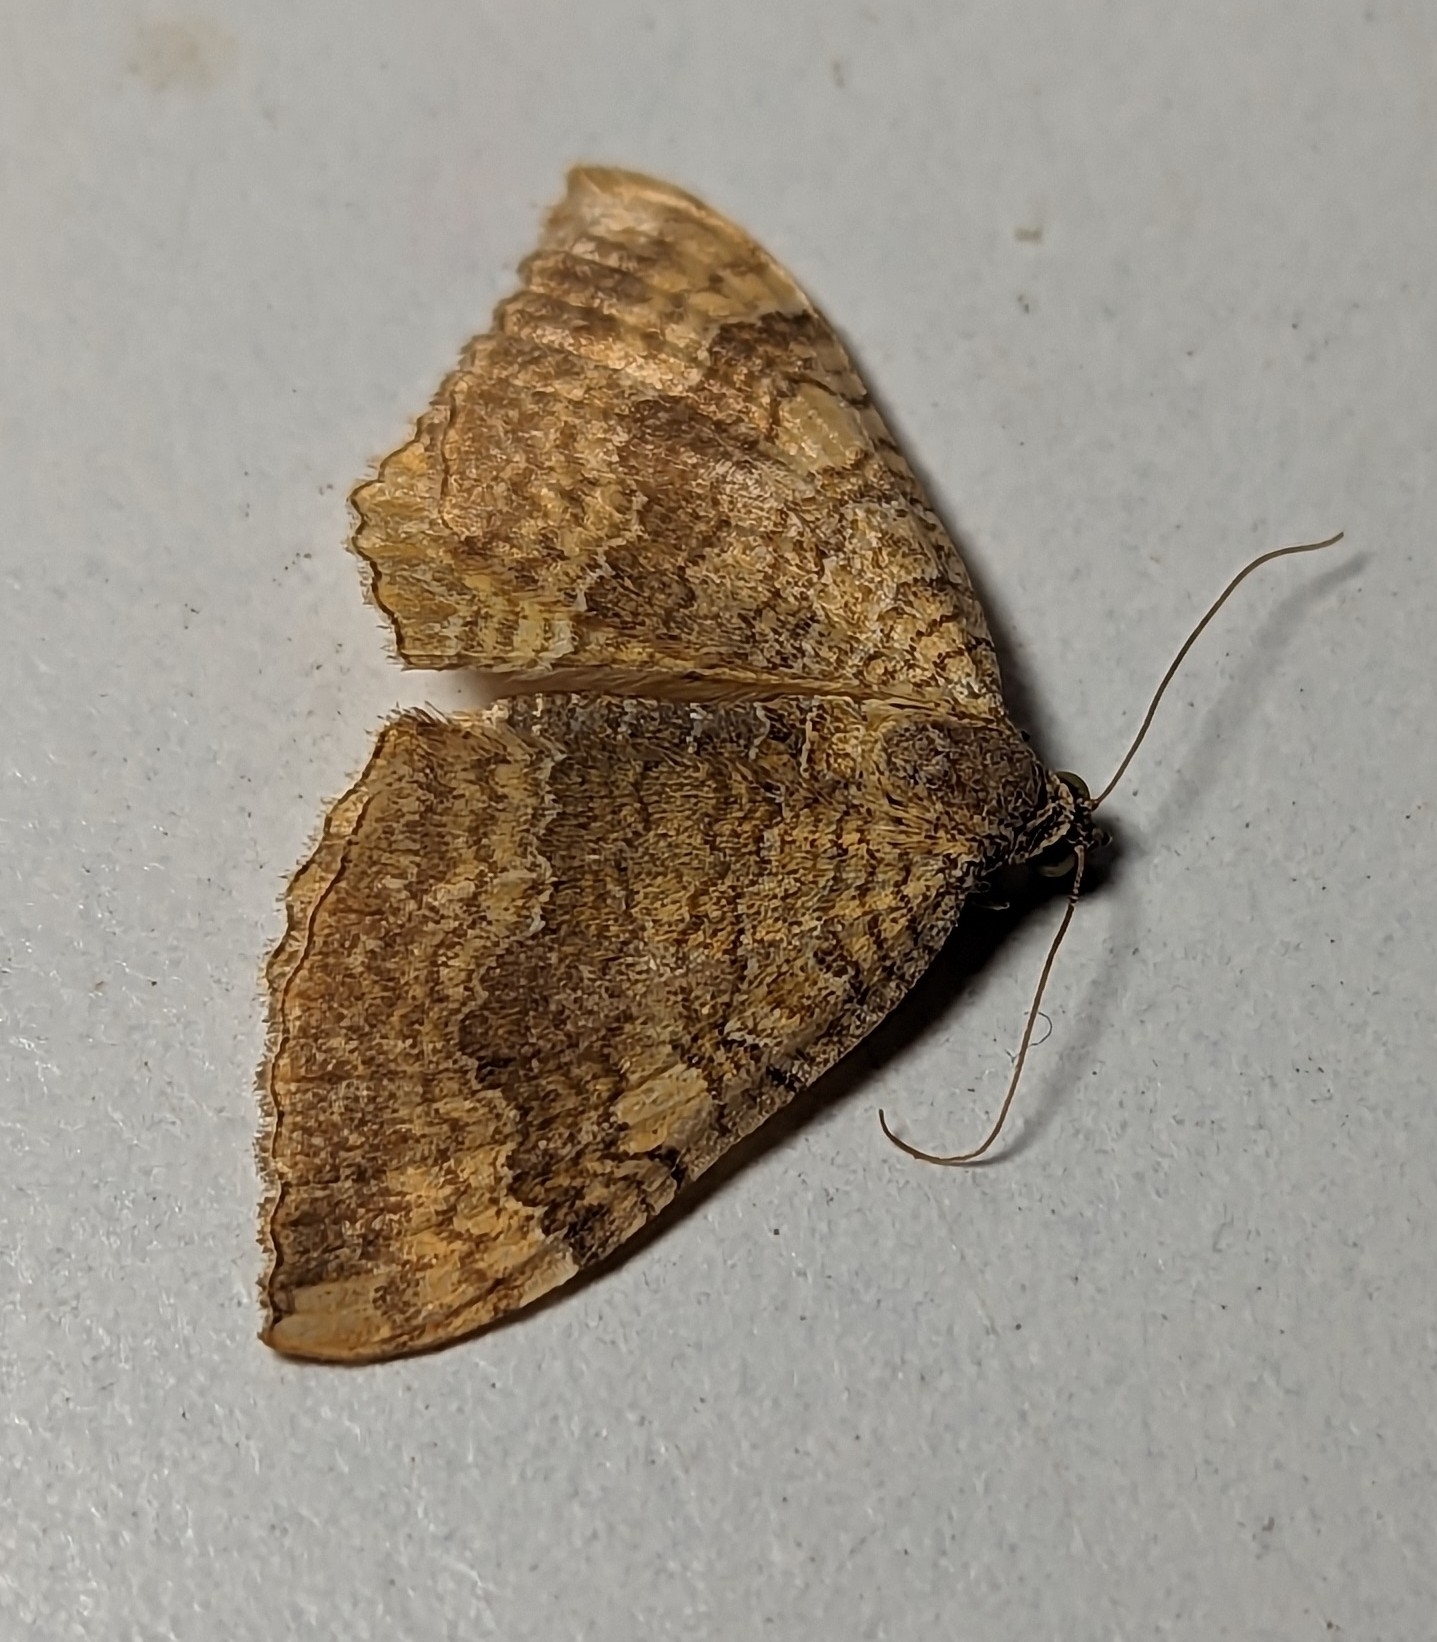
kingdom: Animalia
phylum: Arthropoda
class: Insecta
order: Lepidoptera
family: Geometridae
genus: Camptogramma
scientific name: Camptogramma bilineata
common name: Yellow shell
